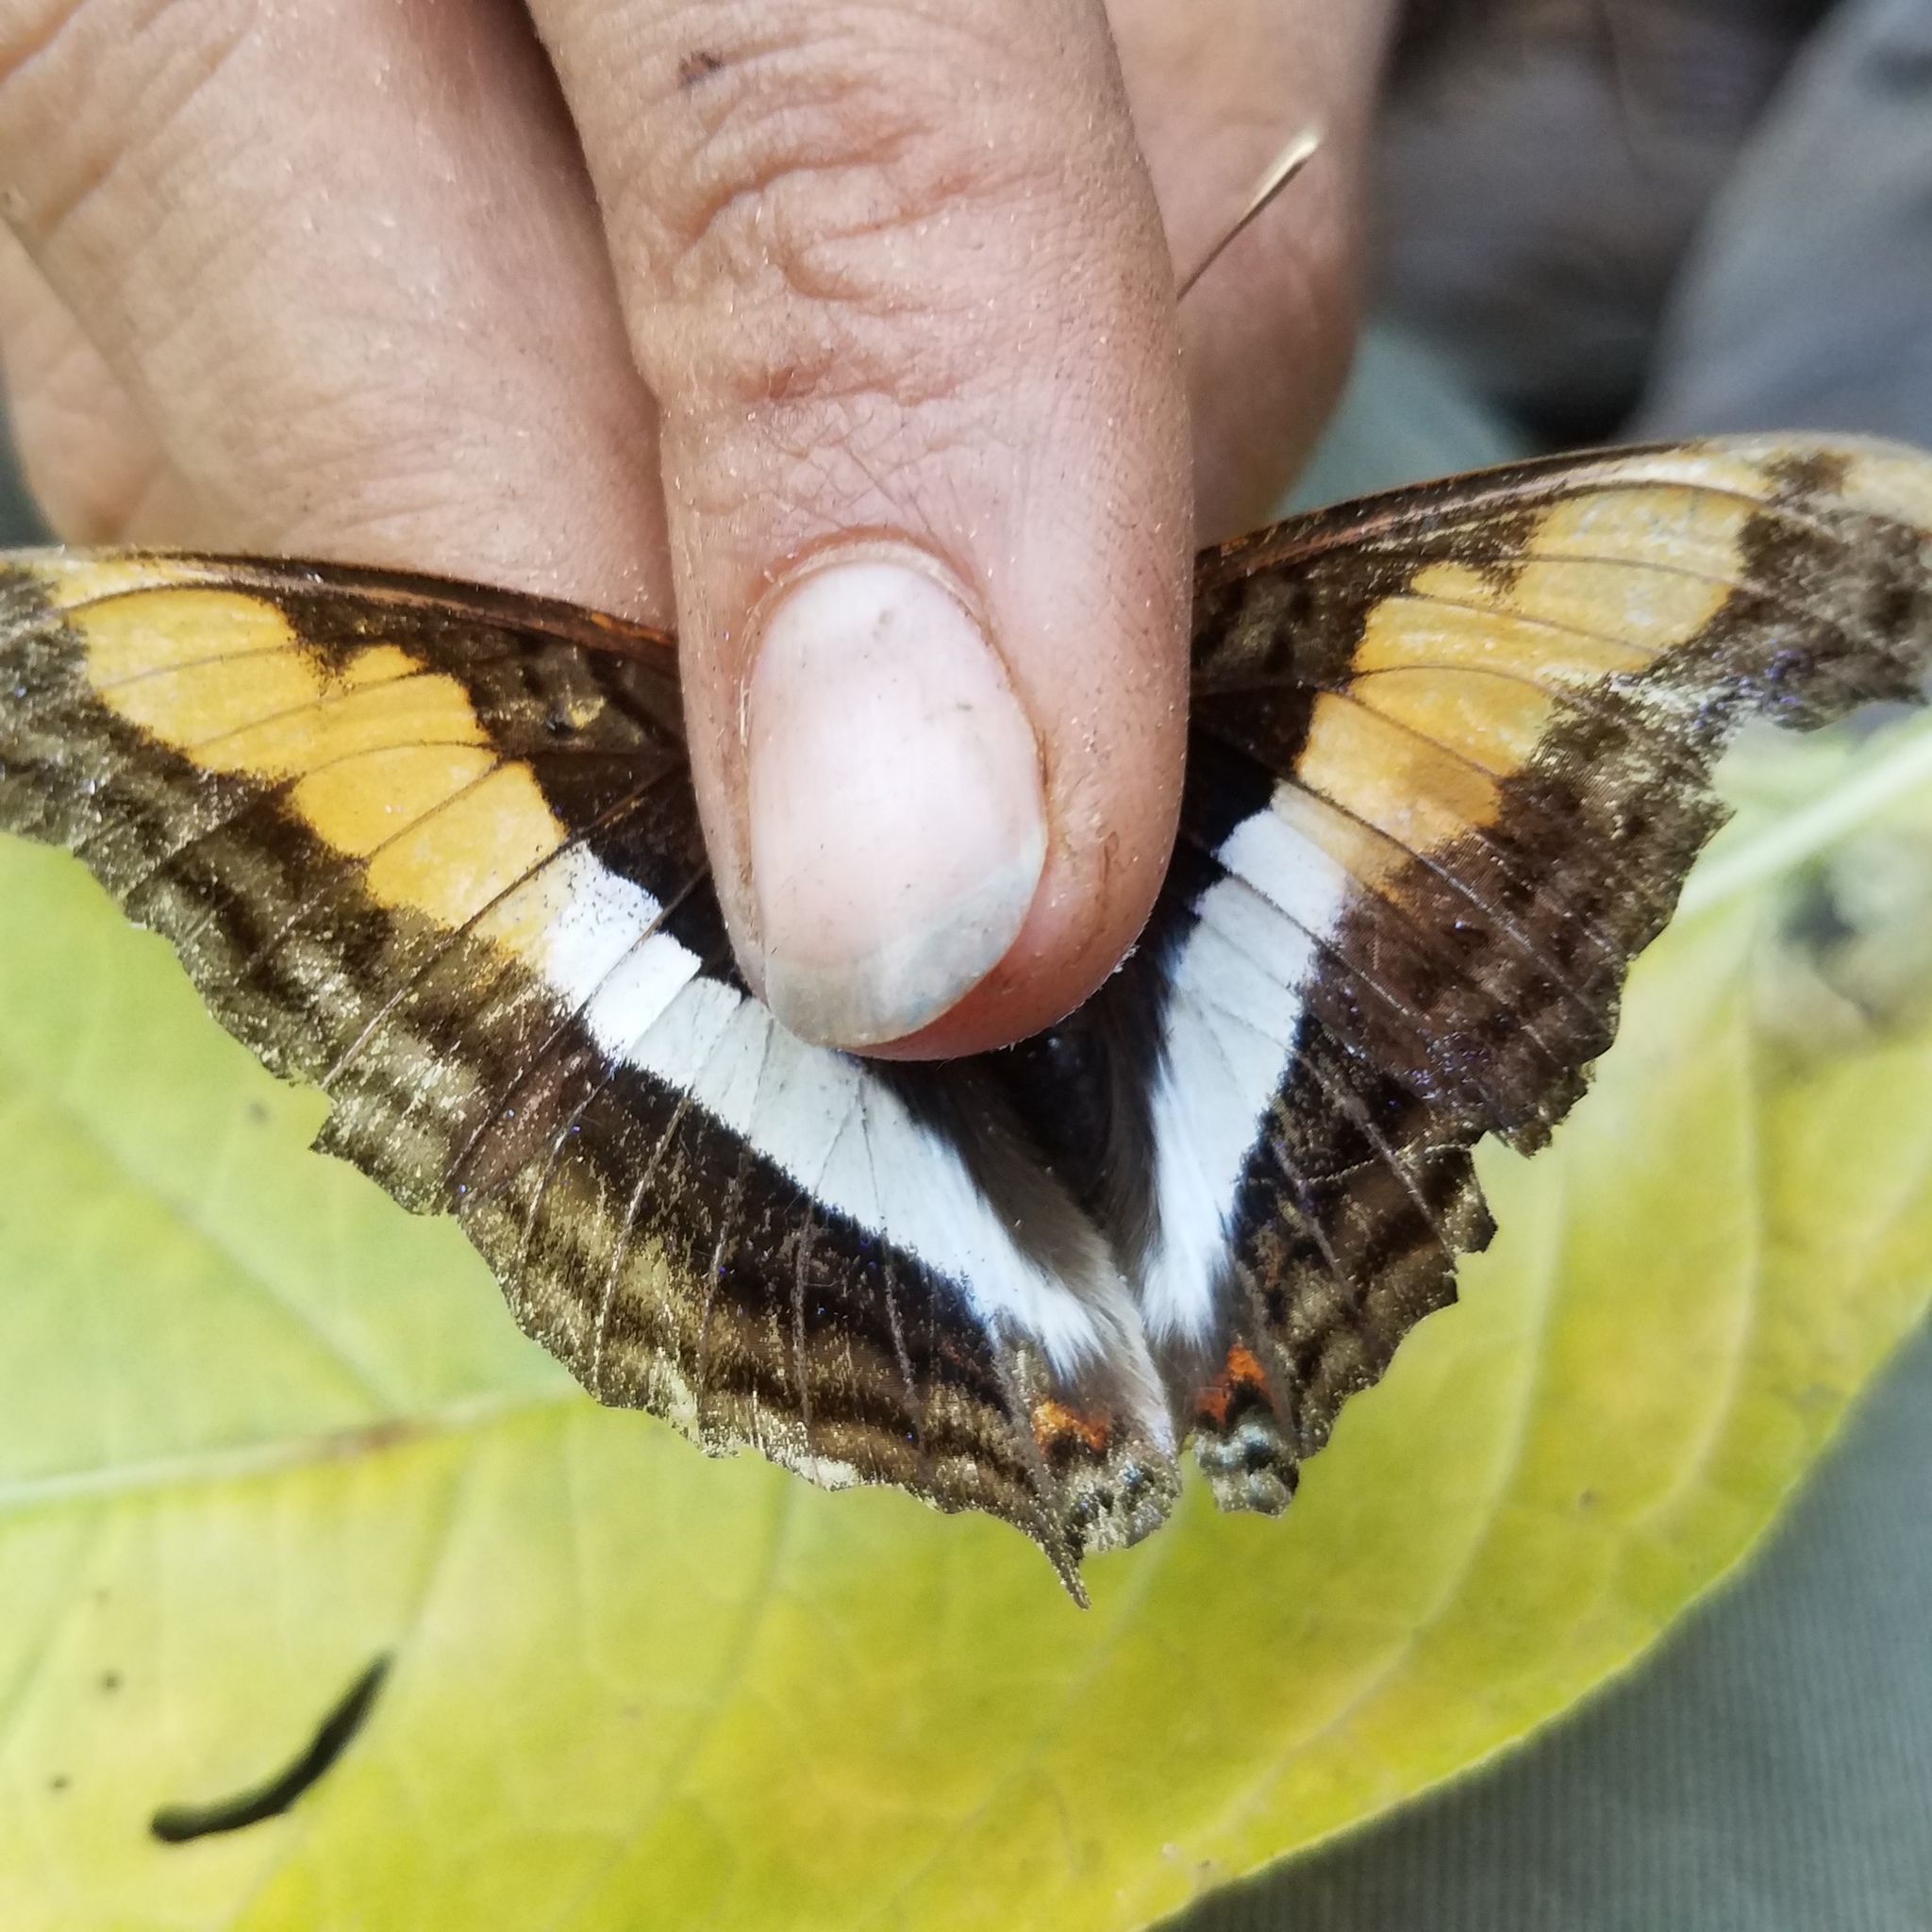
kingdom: Animalia
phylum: Arthropoda
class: Insecta
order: Lepidoptera
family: Nymphalidae
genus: Doxocopa
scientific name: Doxocopa laure
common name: Silver emperor
